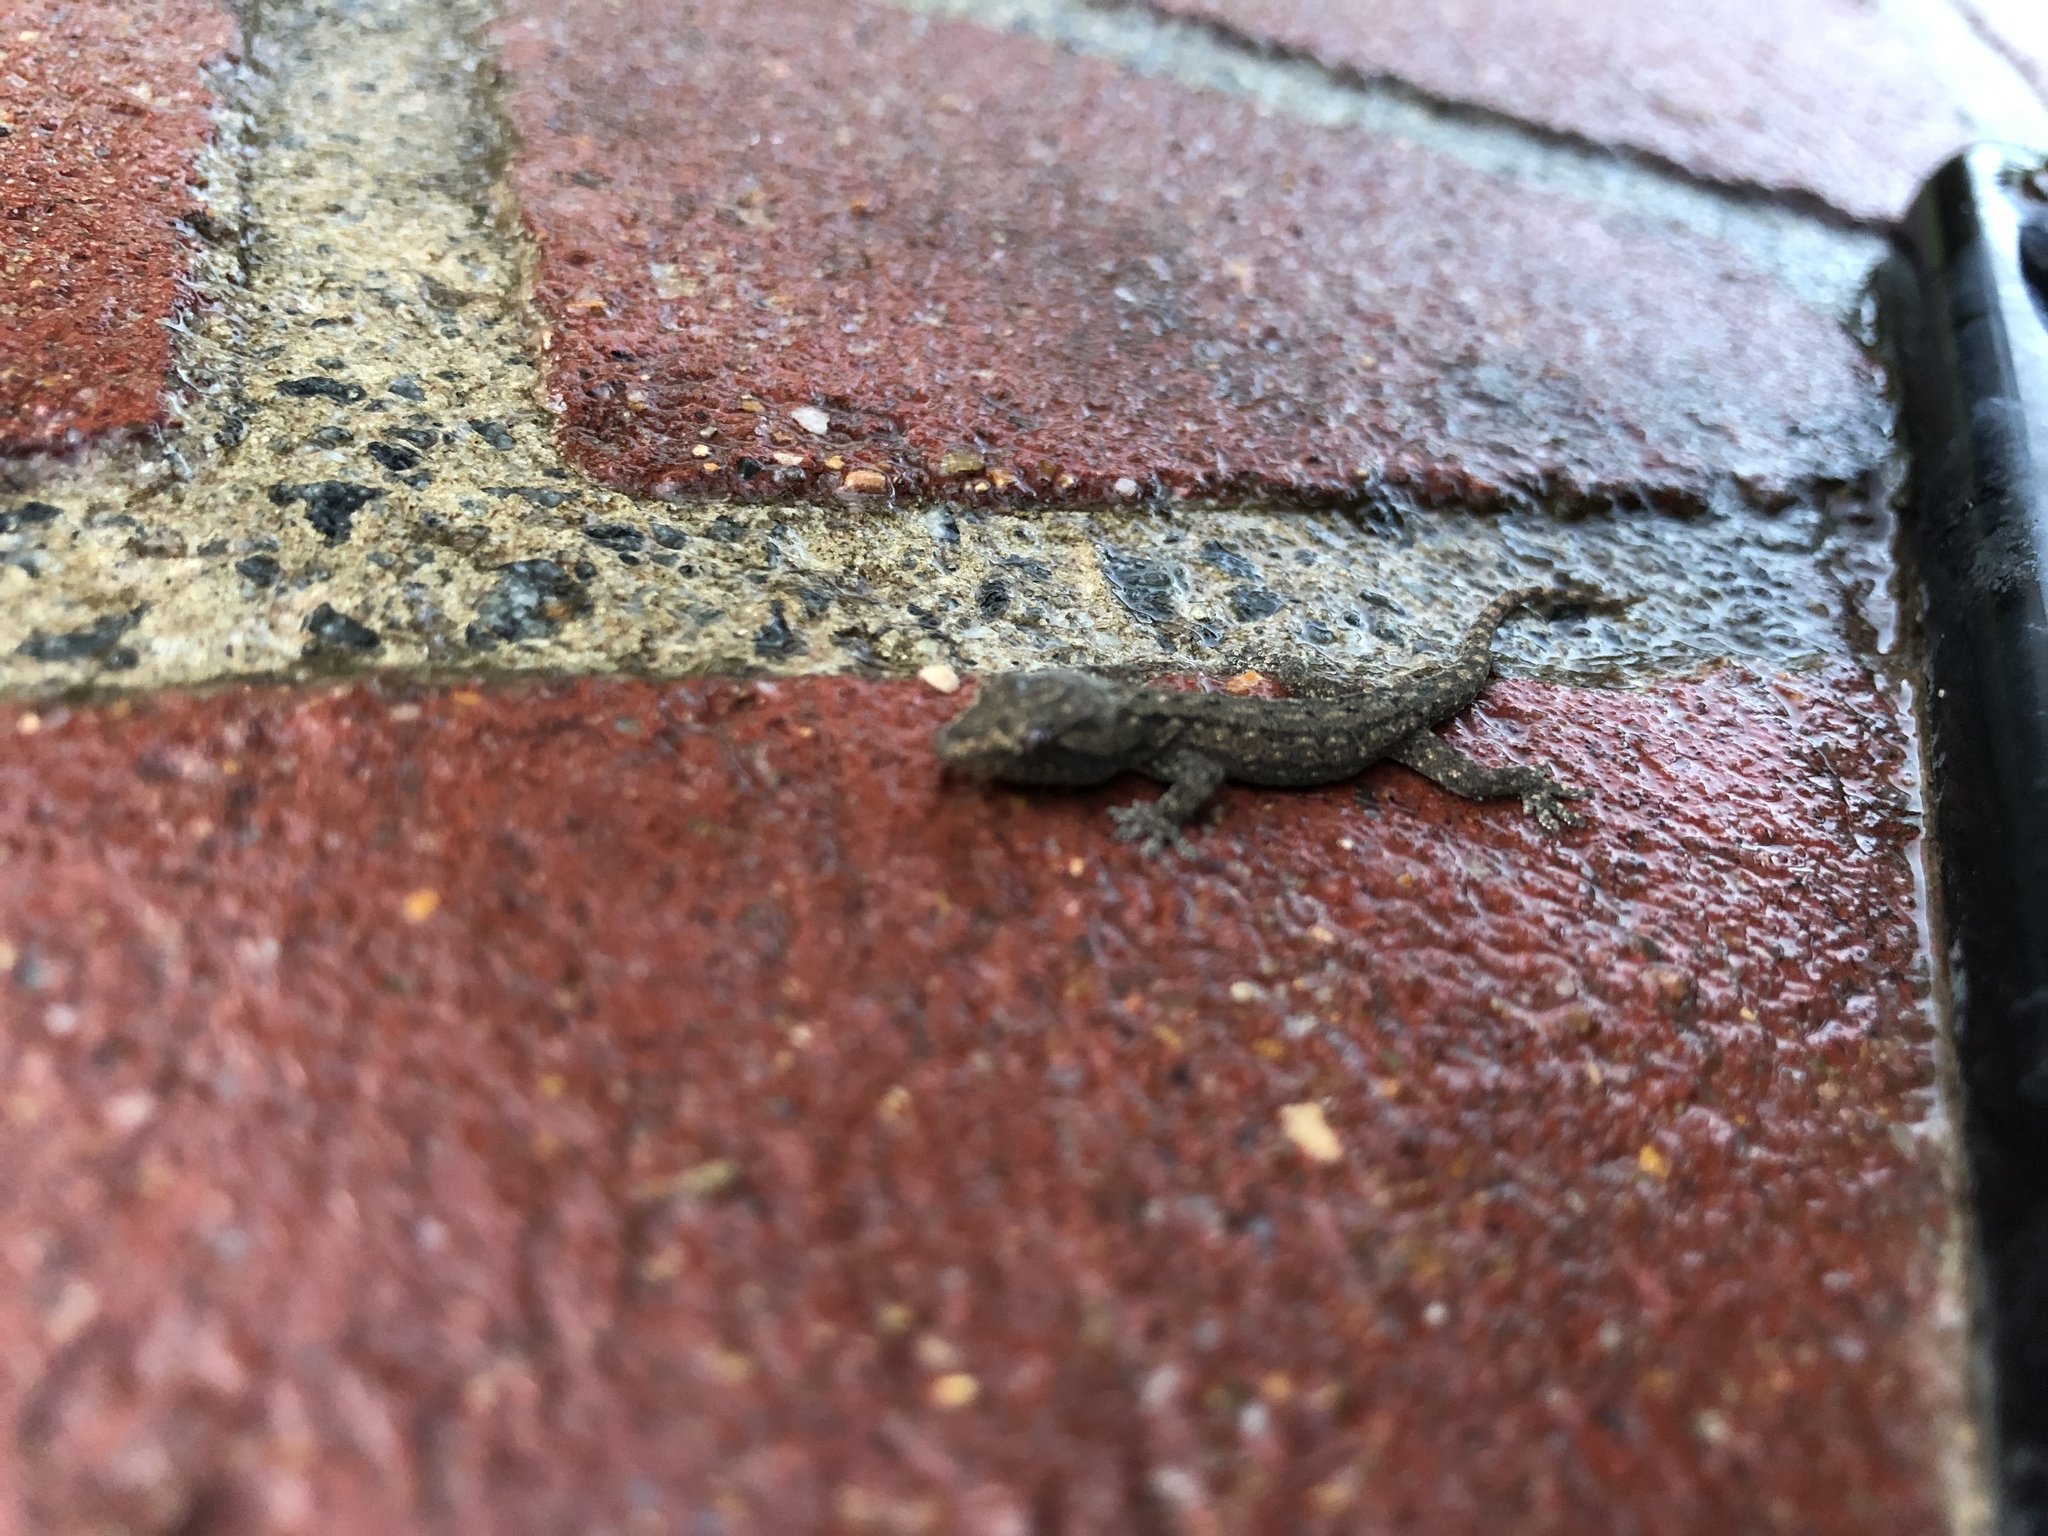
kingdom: Animalia
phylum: Chordata
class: Squamata
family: Gekkonidae
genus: Hemidactylus
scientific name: Hemidactylus frenatus
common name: Common house gecko
